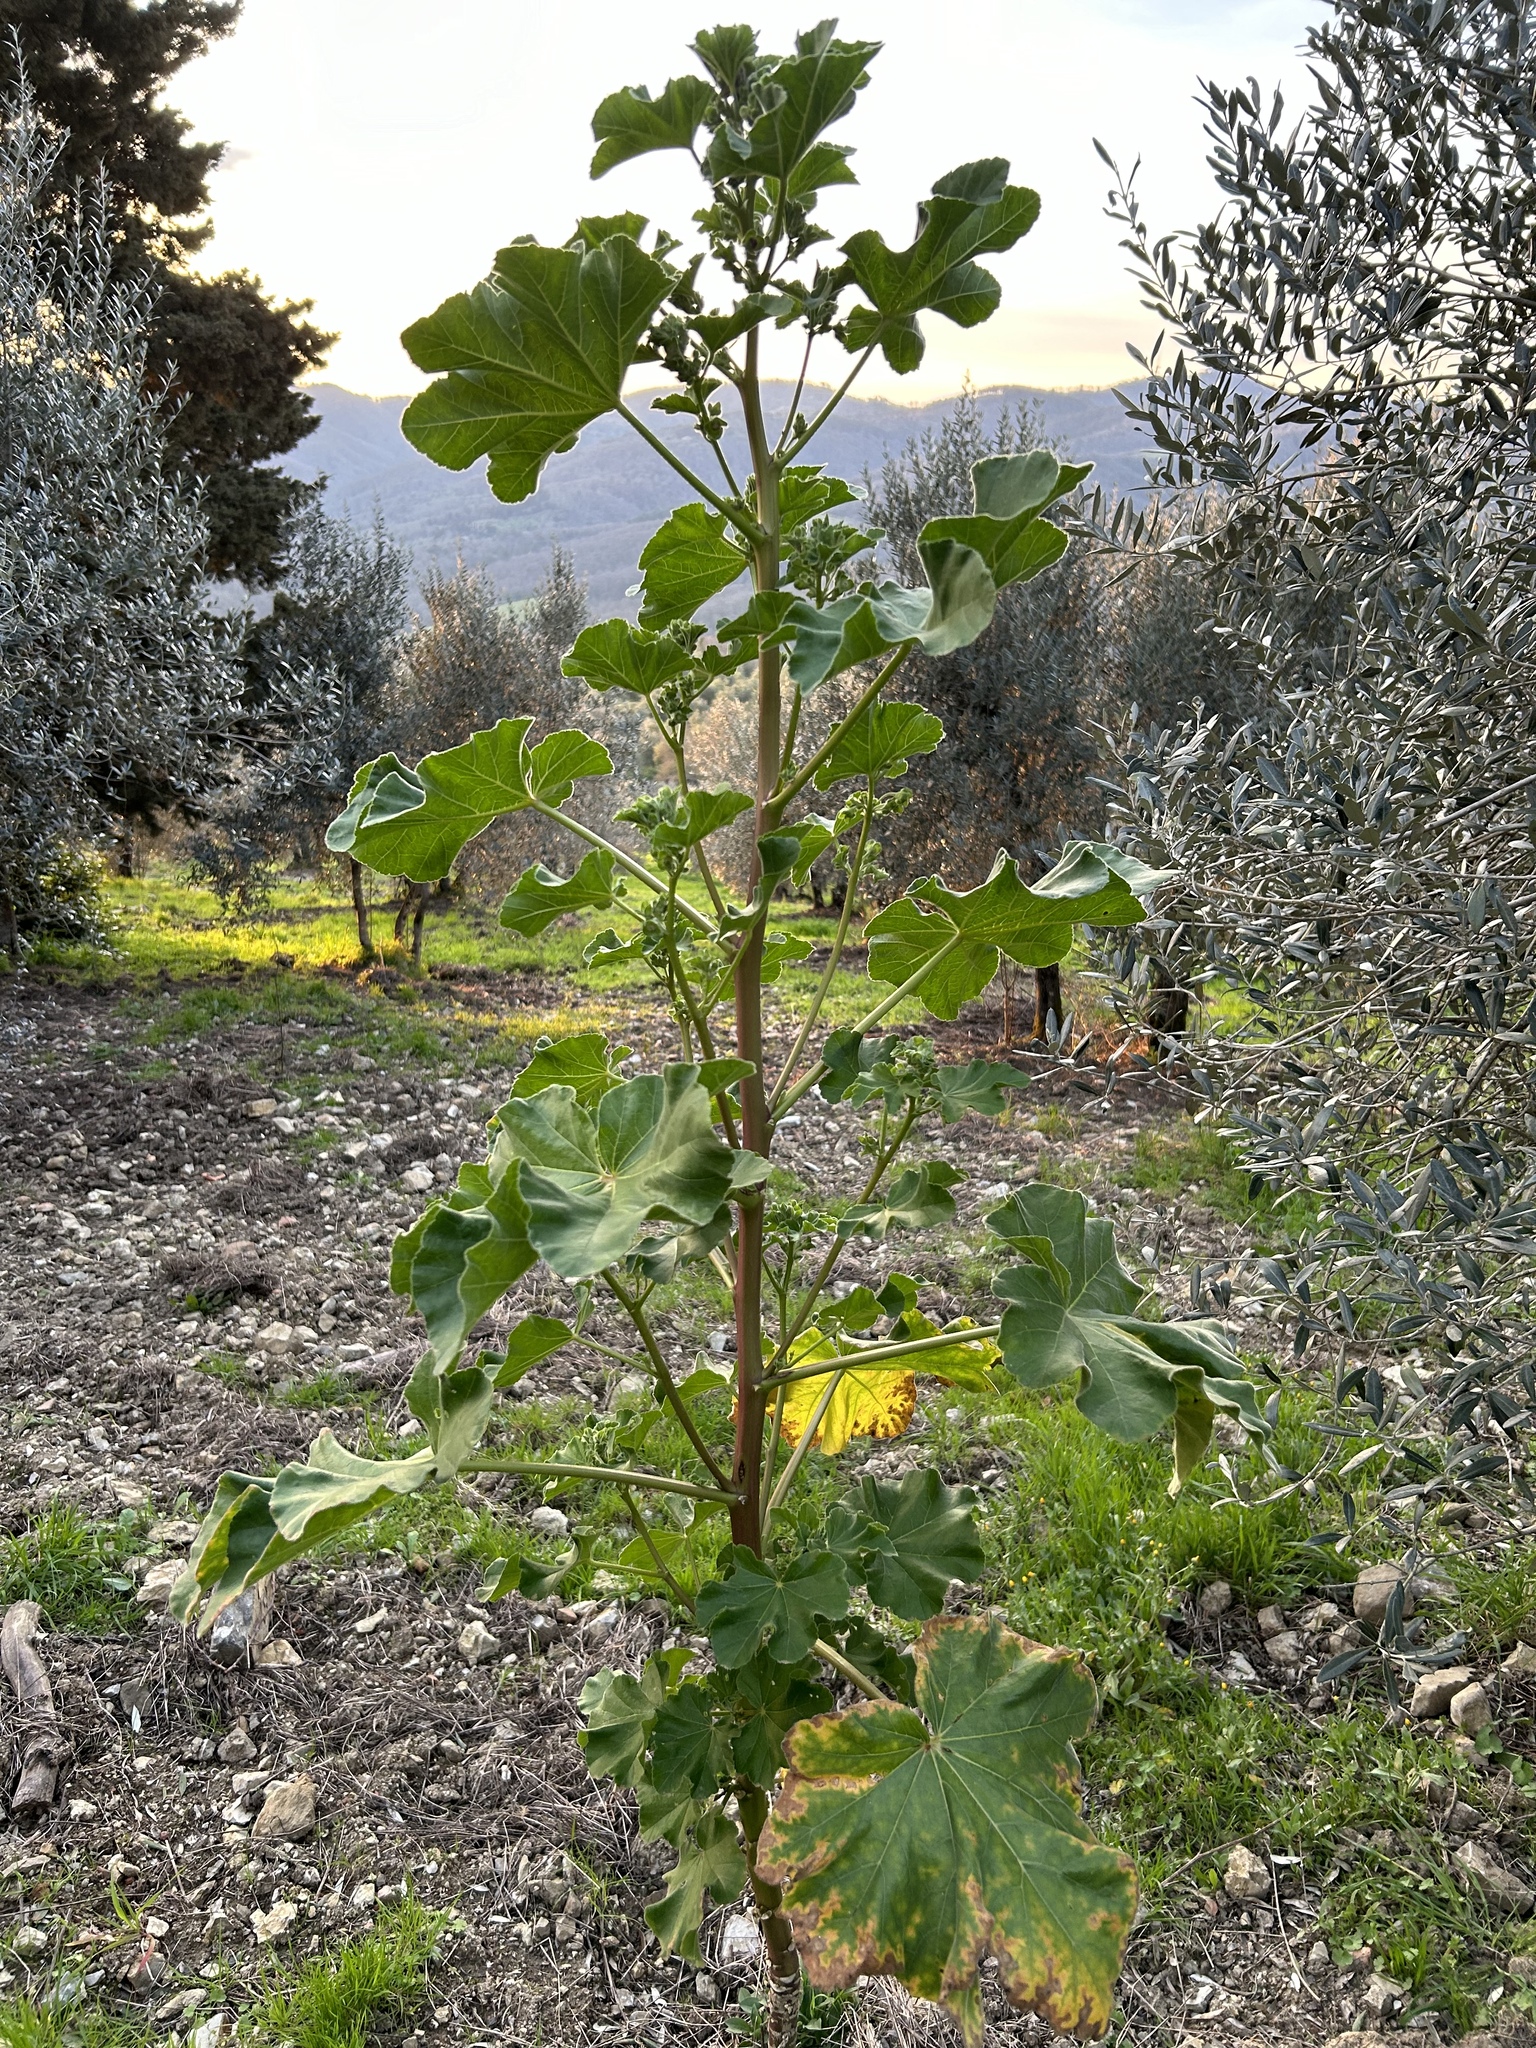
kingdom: Plantae
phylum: Tracheophyta
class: Magnoliopsida
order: Malvales
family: Malvaceae
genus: Malva
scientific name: Malva arborea
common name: Tree mallow
